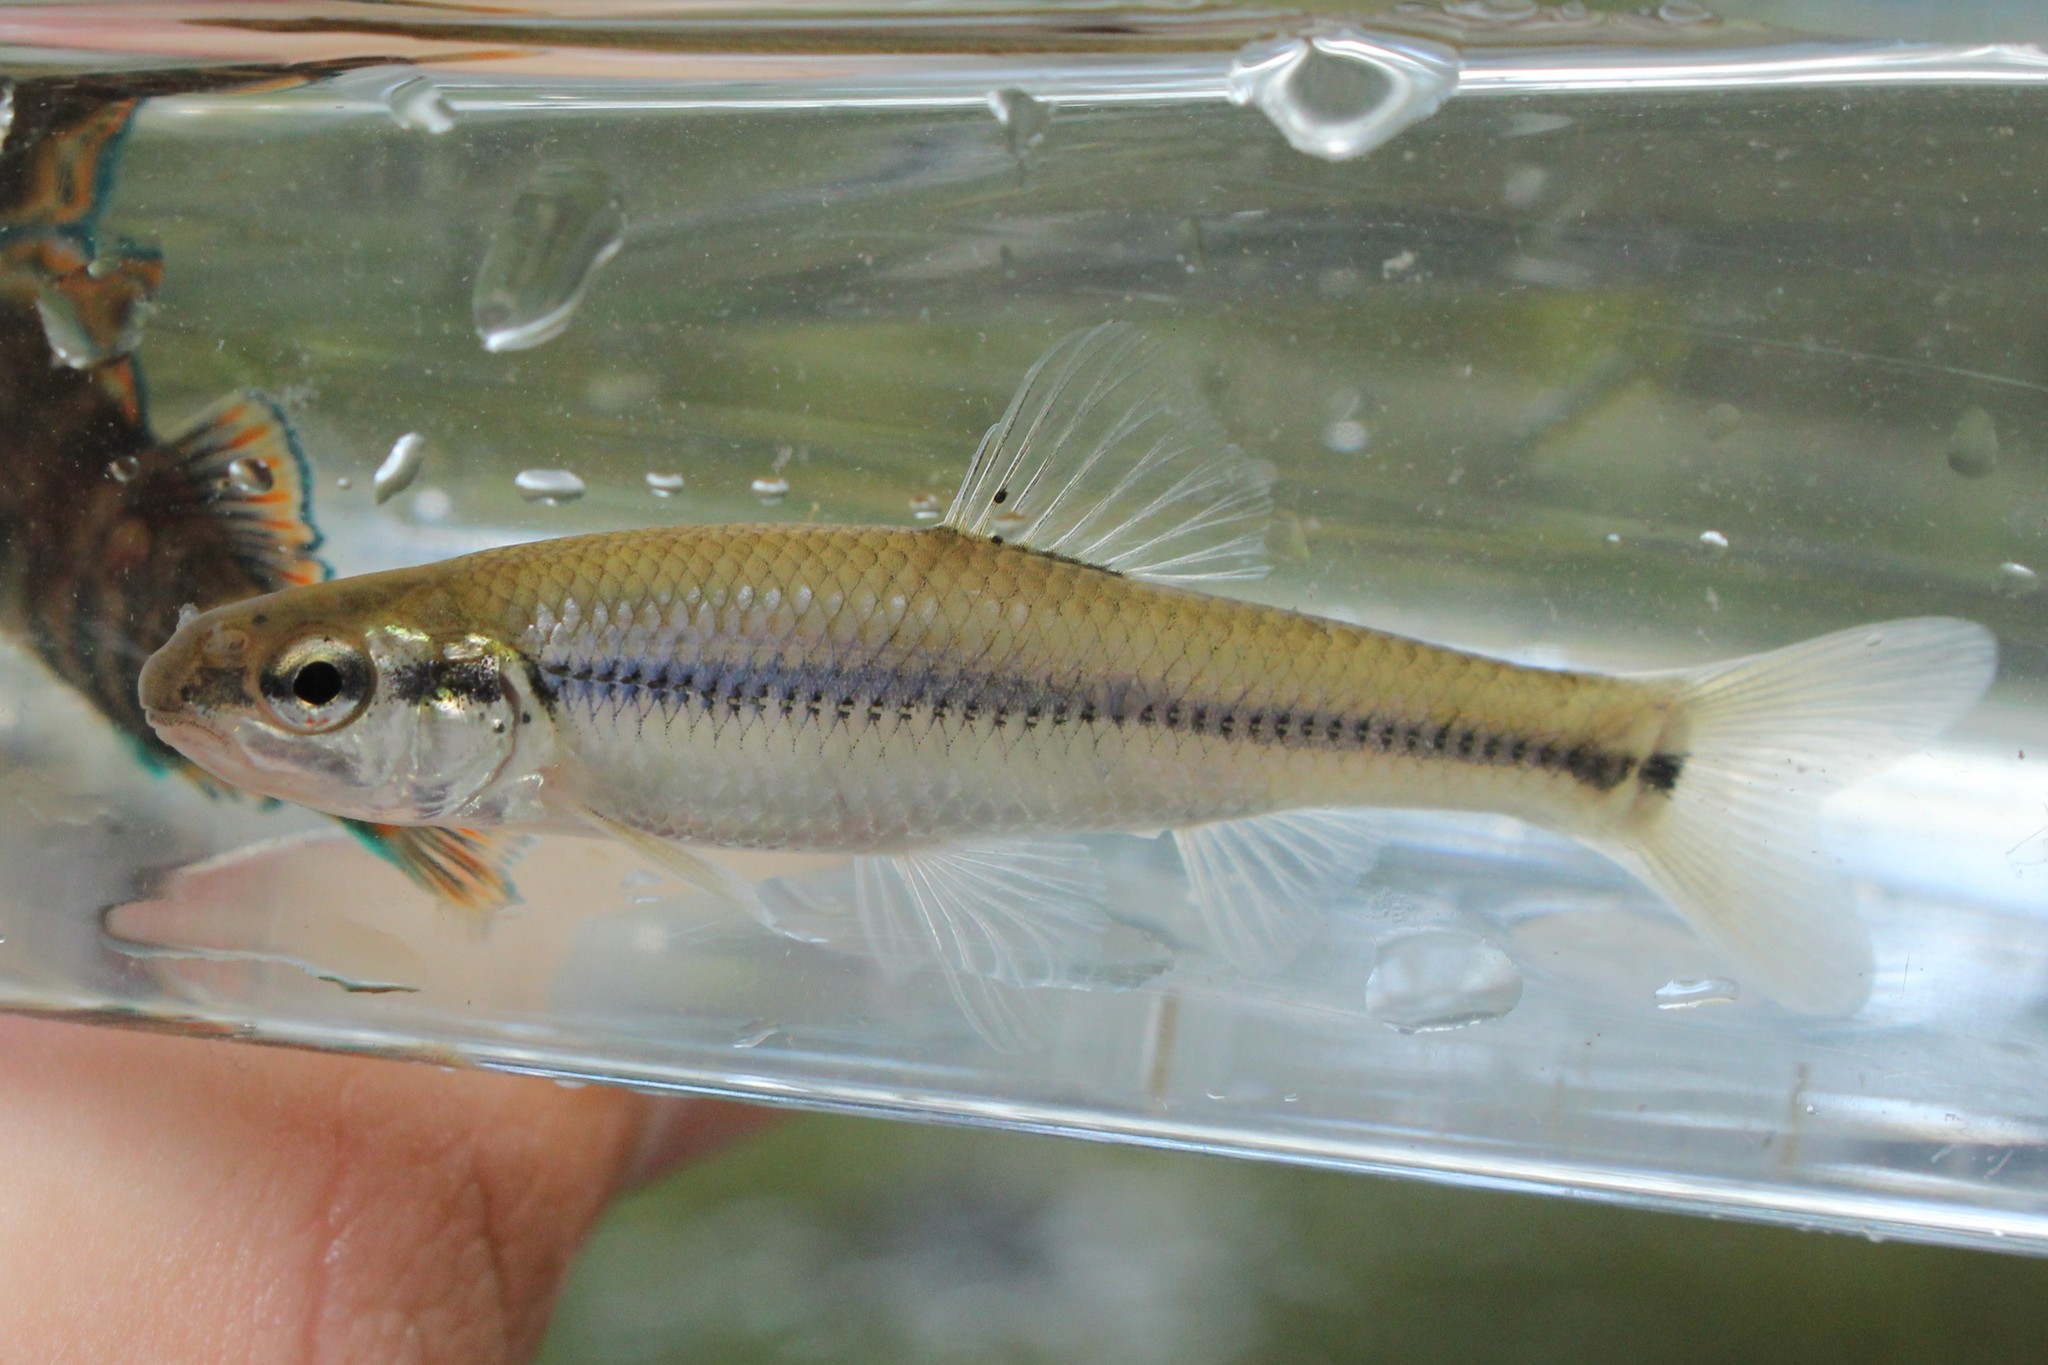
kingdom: Animalia
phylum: Chordata
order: Cypriniformes
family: Cyprinidae
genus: Pimephales
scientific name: Pimephales notatus
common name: Bluntnose minnow
